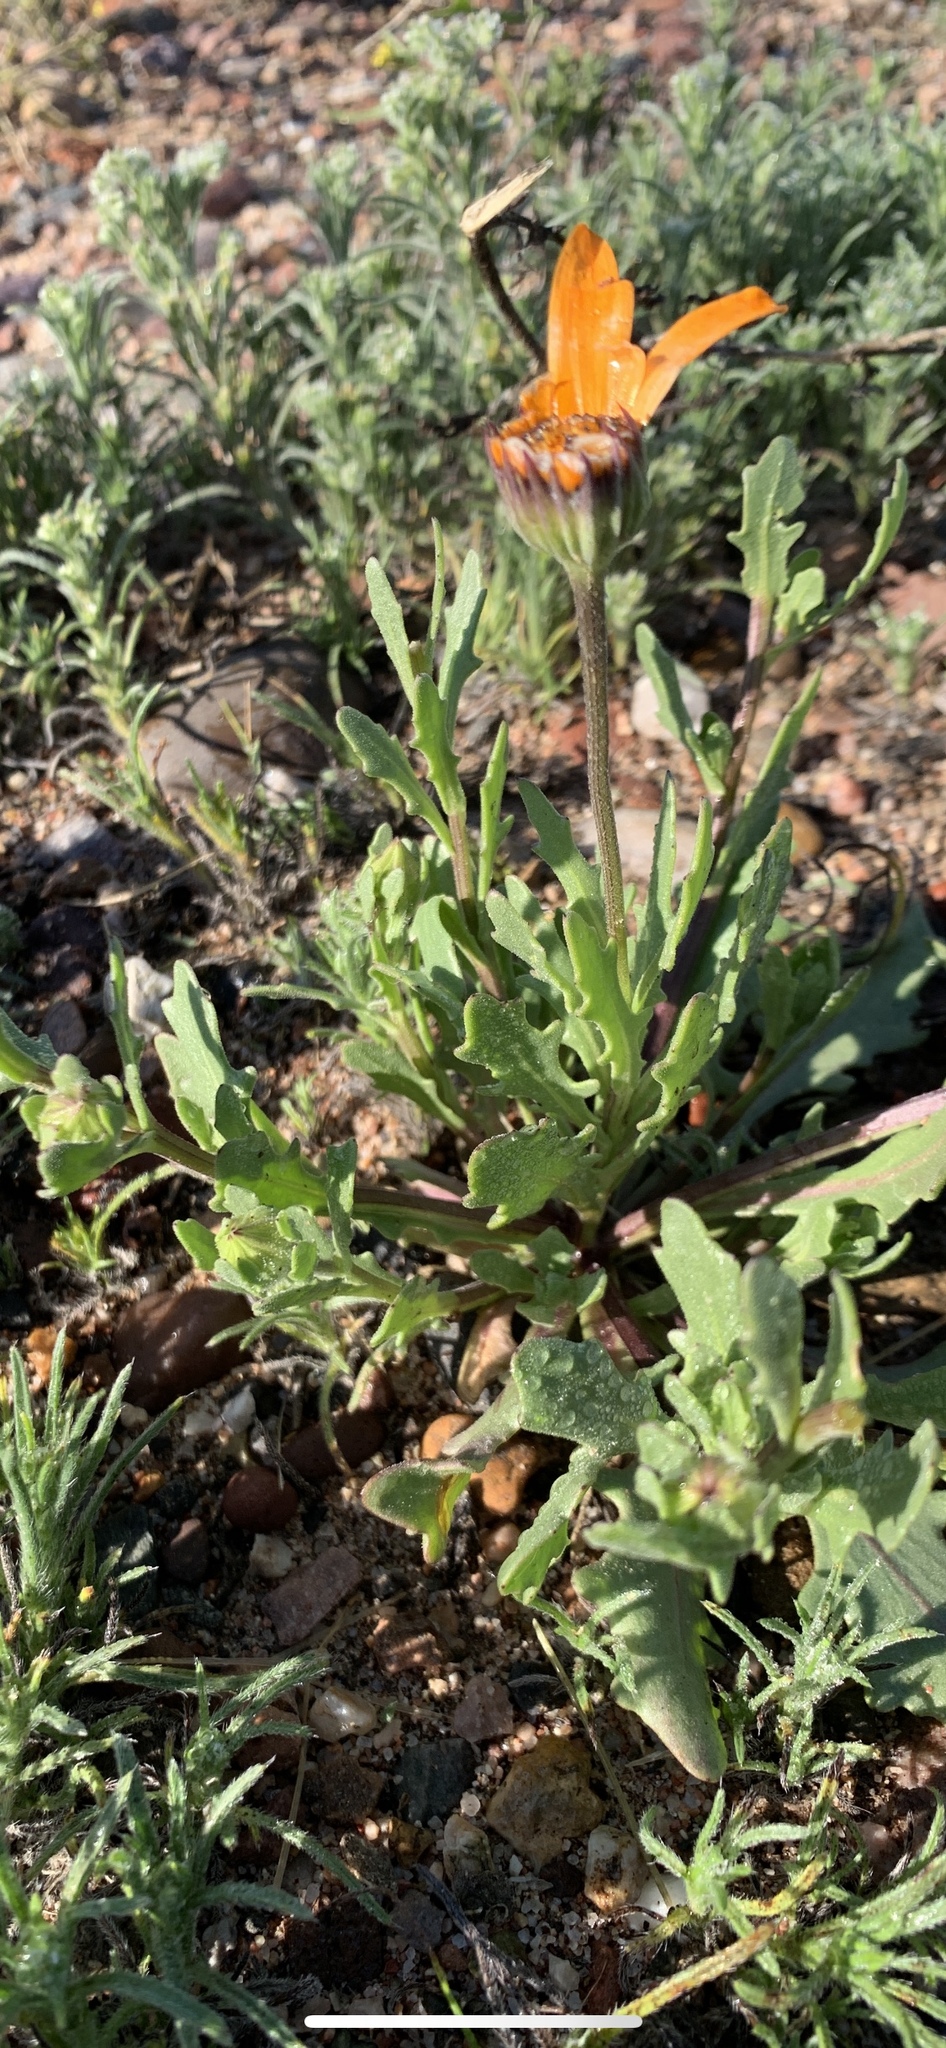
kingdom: Plantae
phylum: Tracheophyta
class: Magnoliopsida
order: Asterales
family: Asteraceae
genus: Dimorphotheca
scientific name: Dimorphotheca sinuata
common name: Glandular cape marigold
